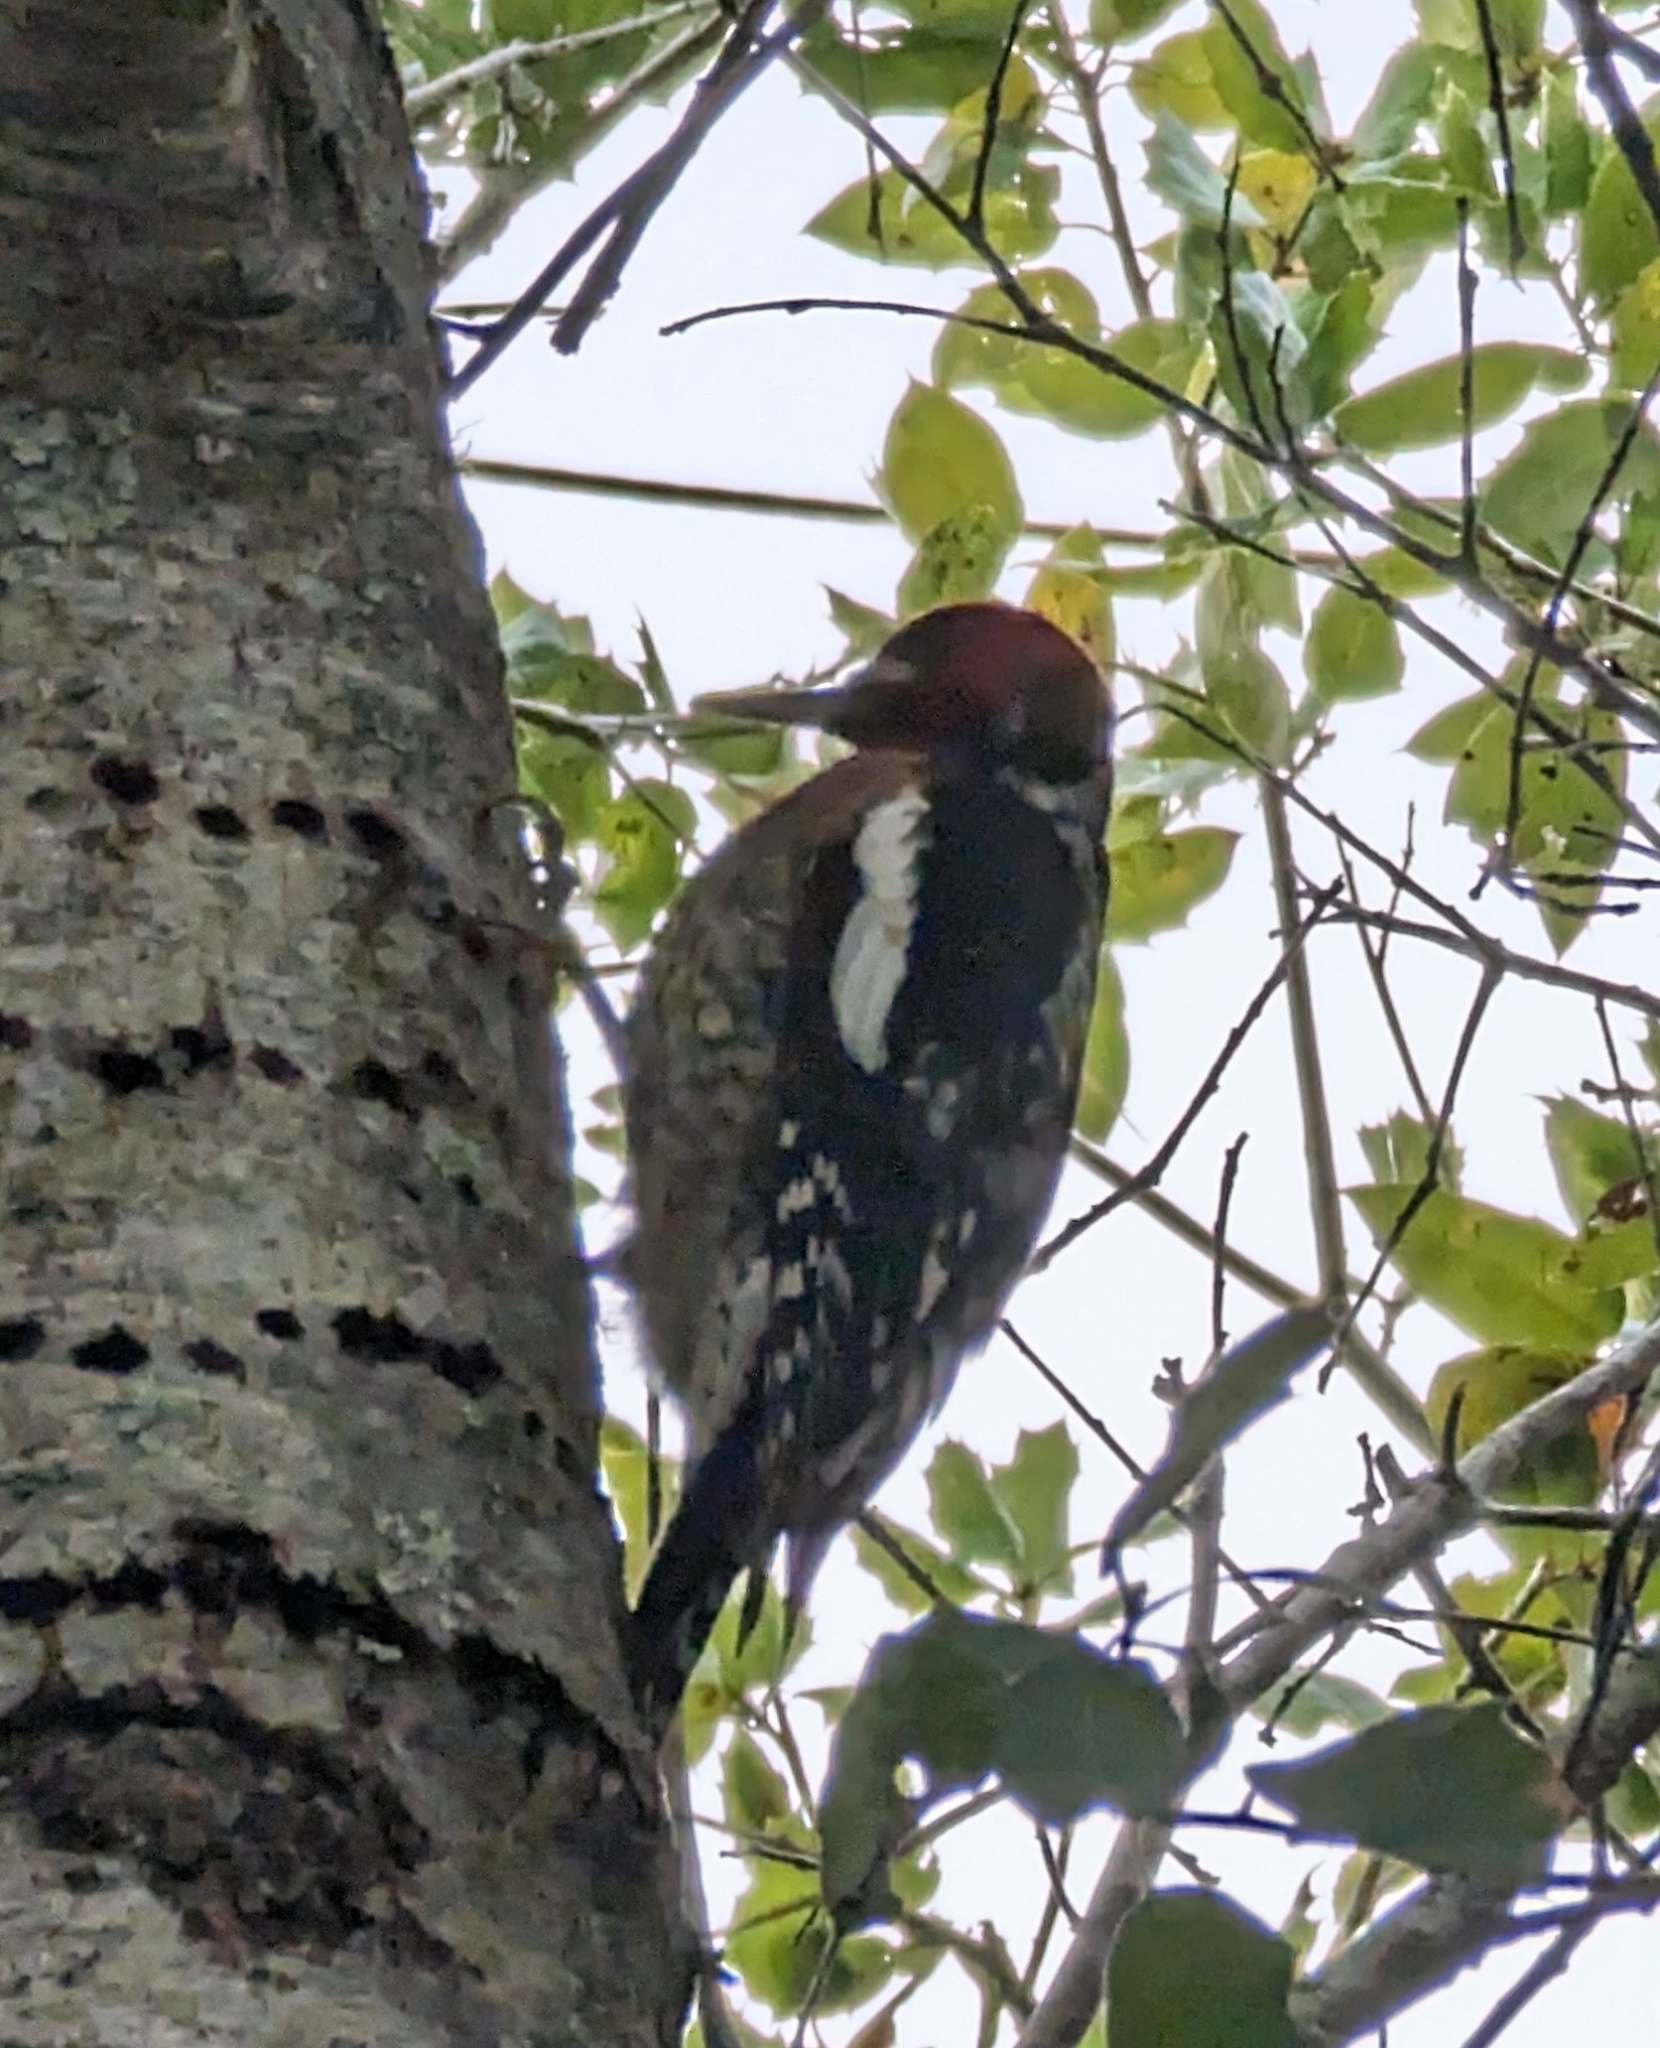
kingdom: Animalia
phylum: Chordata
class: Aves
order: Piciformes
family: Picidae
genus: Sphyrapicus
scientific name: Sphyrapicus ruber
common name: Red-breasted sapsucker
